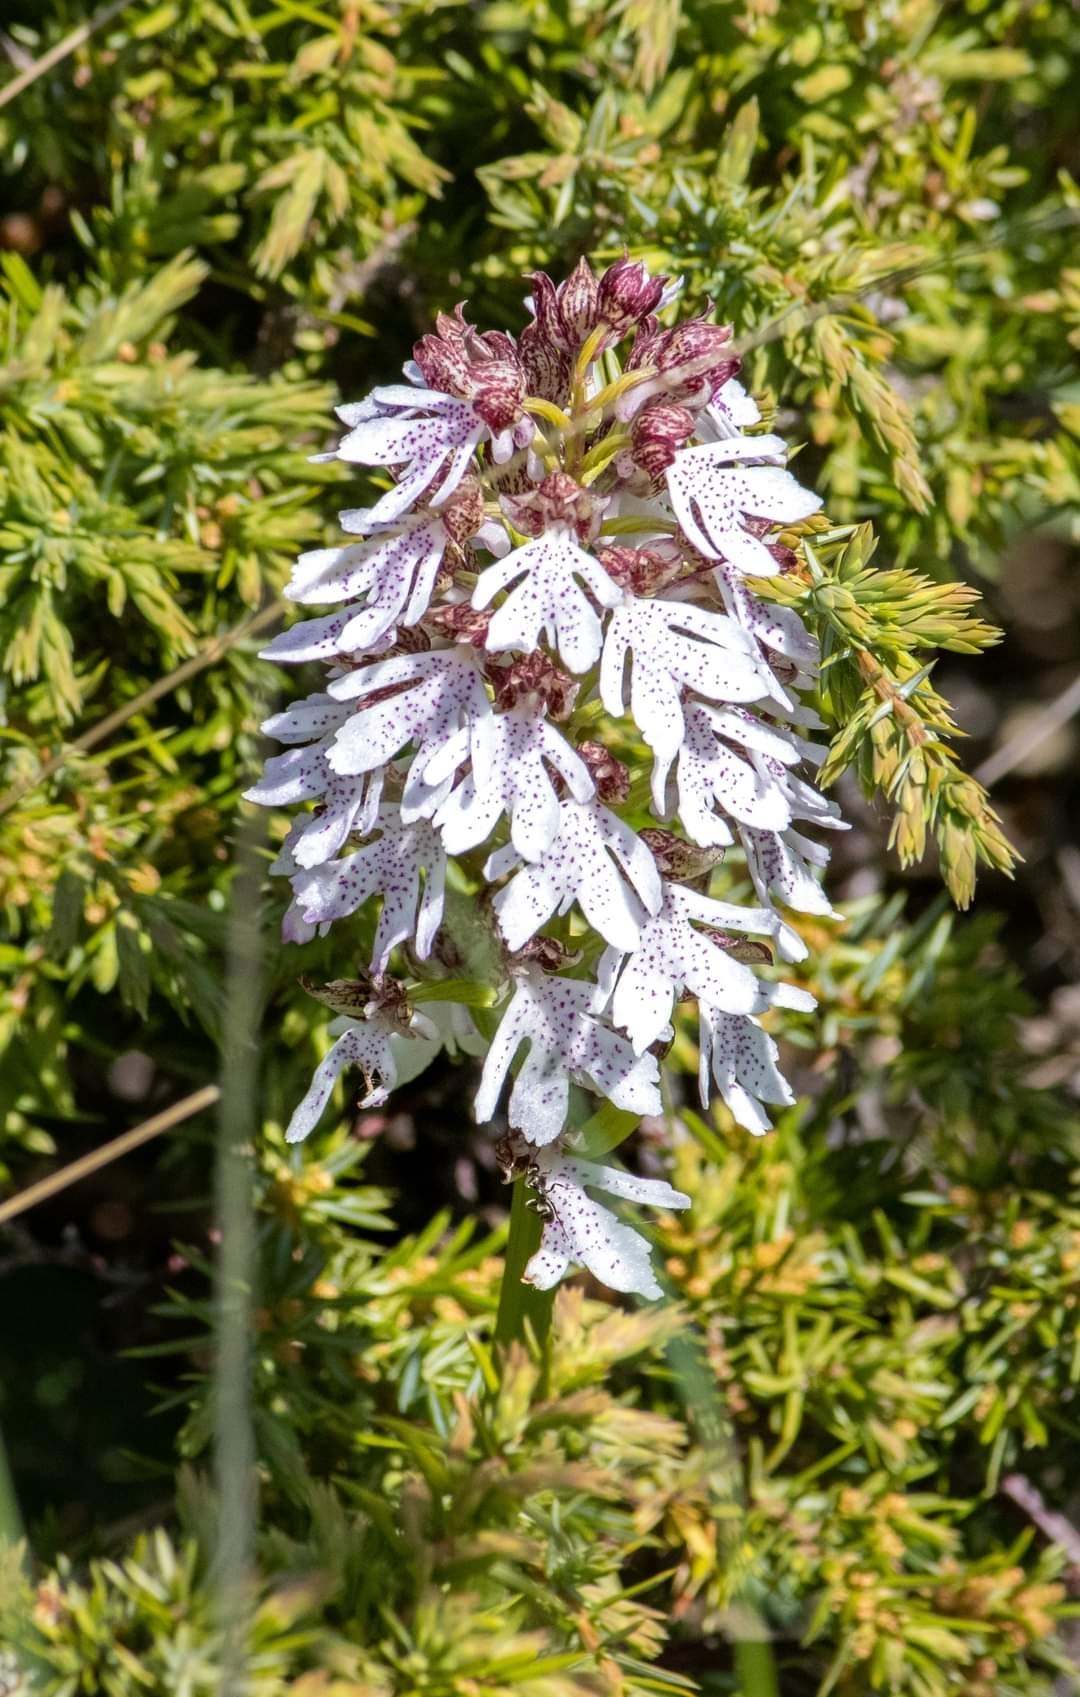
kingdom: Plantae
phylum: Tracheophyta
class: Liliopsida
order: Asparagales
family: Orchidaceae
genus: Orchis
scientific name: Orchis purpurea
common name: Lady orchid
